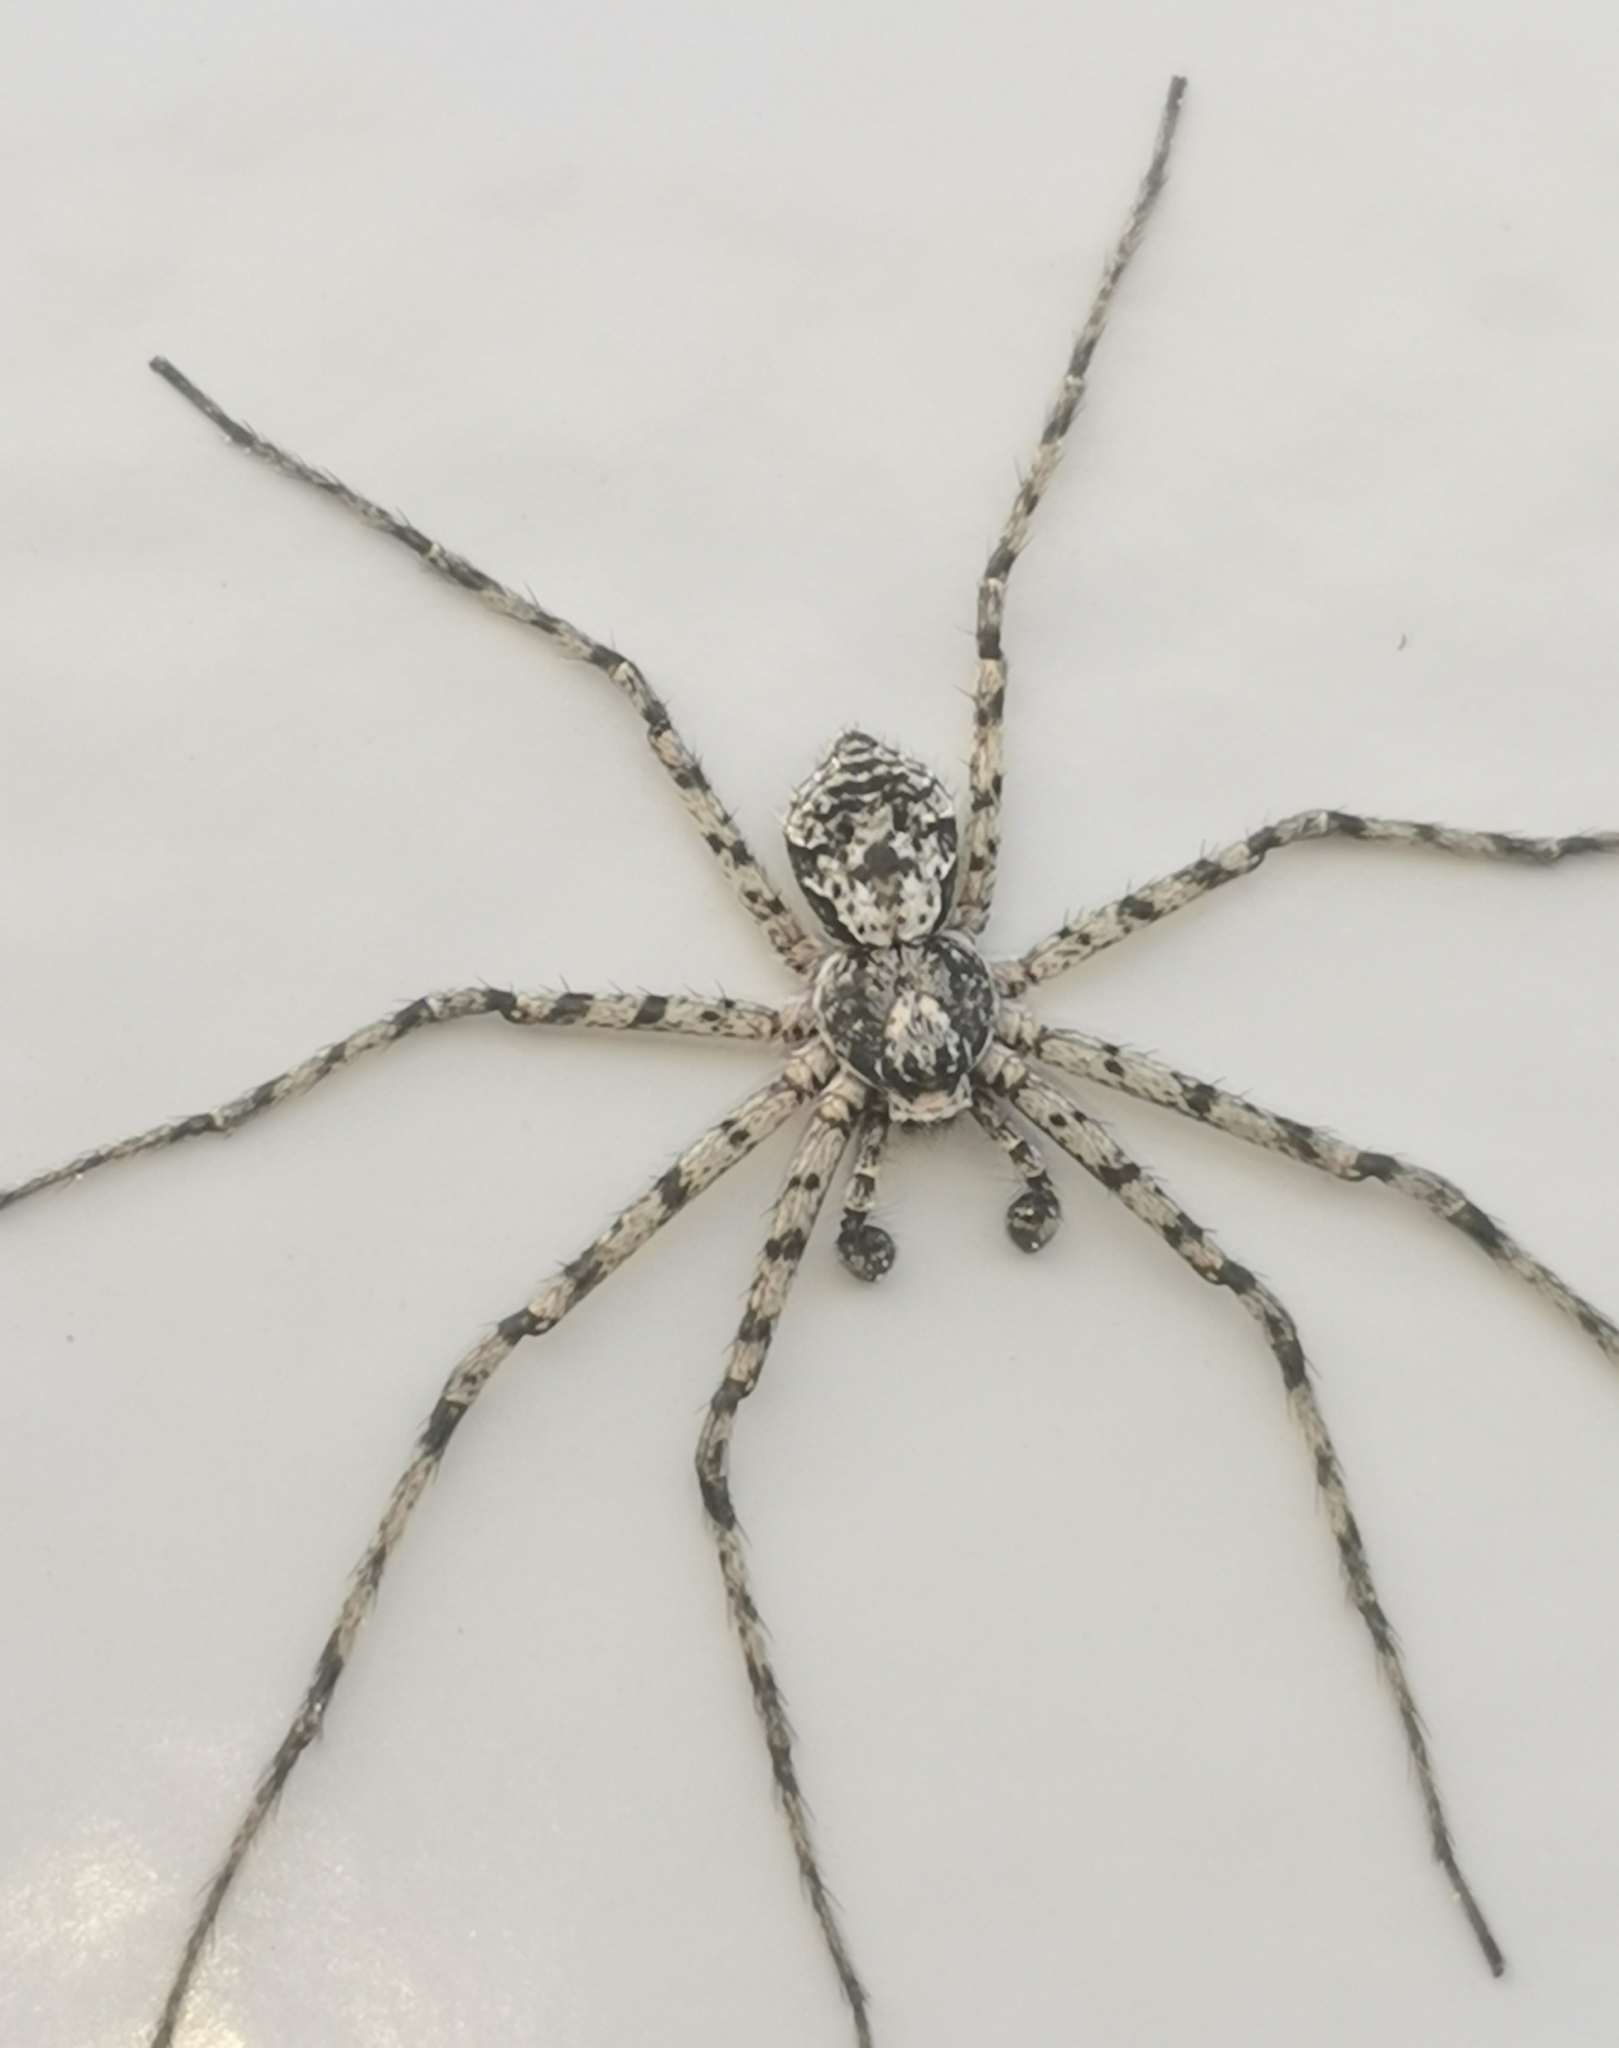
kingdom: Animalia
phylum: Arthropoda
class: Arachnida
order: Araneae
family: Philodromidae
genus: Philodromus
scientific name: Philodromus margaritatus
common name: Lichen running-spider
